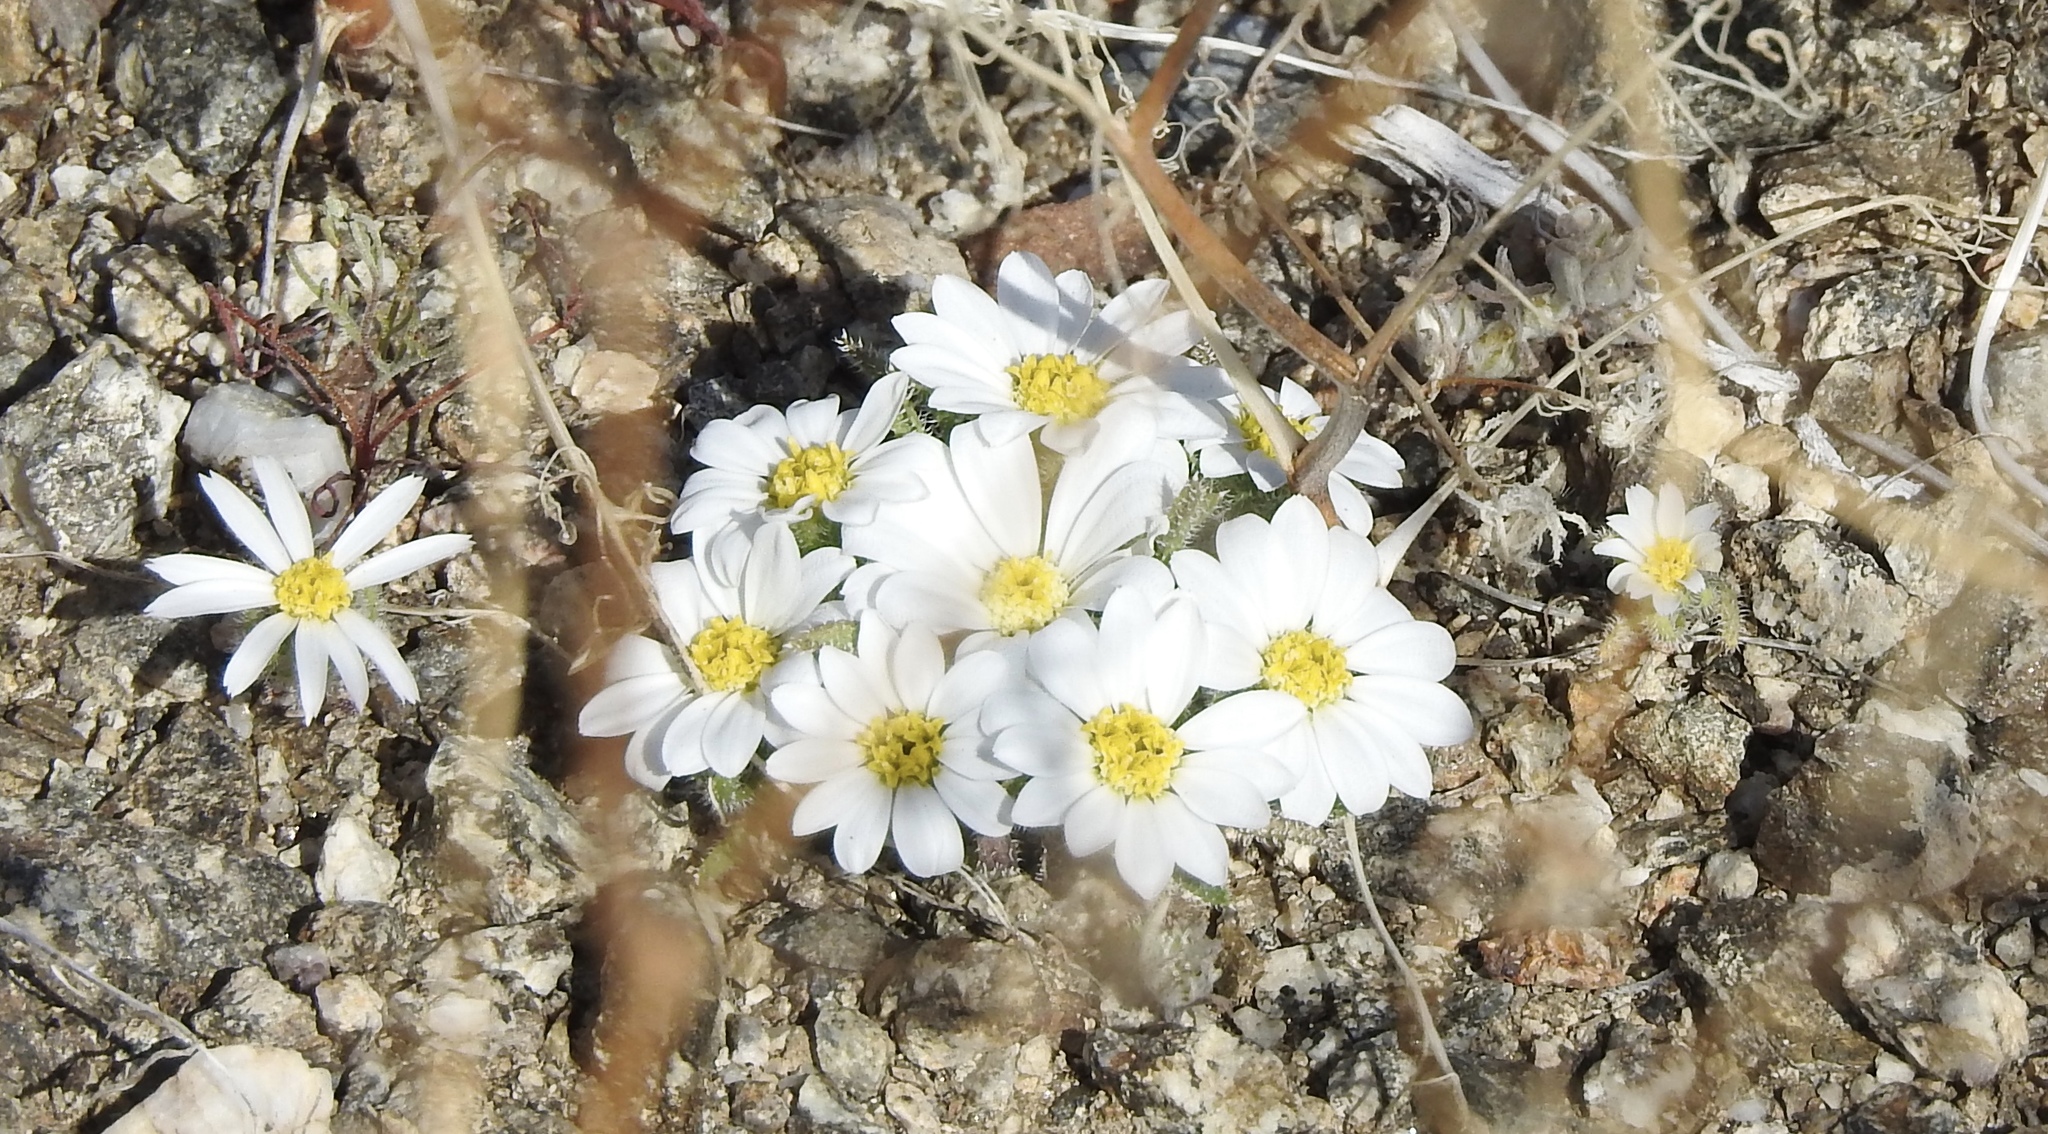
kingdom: Plantae
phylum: Tracheophyta
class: Magnoliopsida
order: Asterales
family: Asteraceae
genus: Monoptilon
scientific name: Monoptilon bellioides
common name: Bristly desertstar
